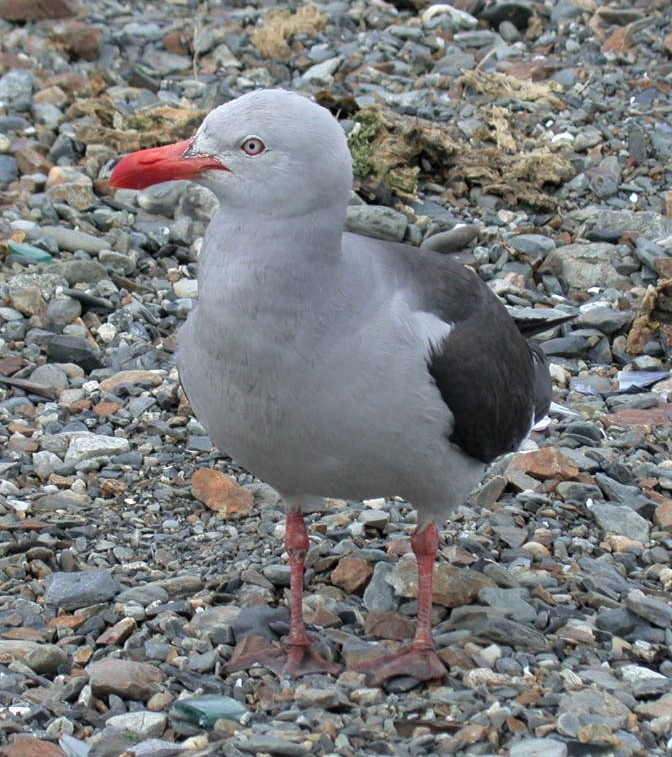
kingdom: Animalia
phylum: Chordata
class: Aves
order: Charadriiformes
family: Laridae
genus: Leucophaeus
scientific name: Leucophaeus scoresbii
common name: Dolphin gull
